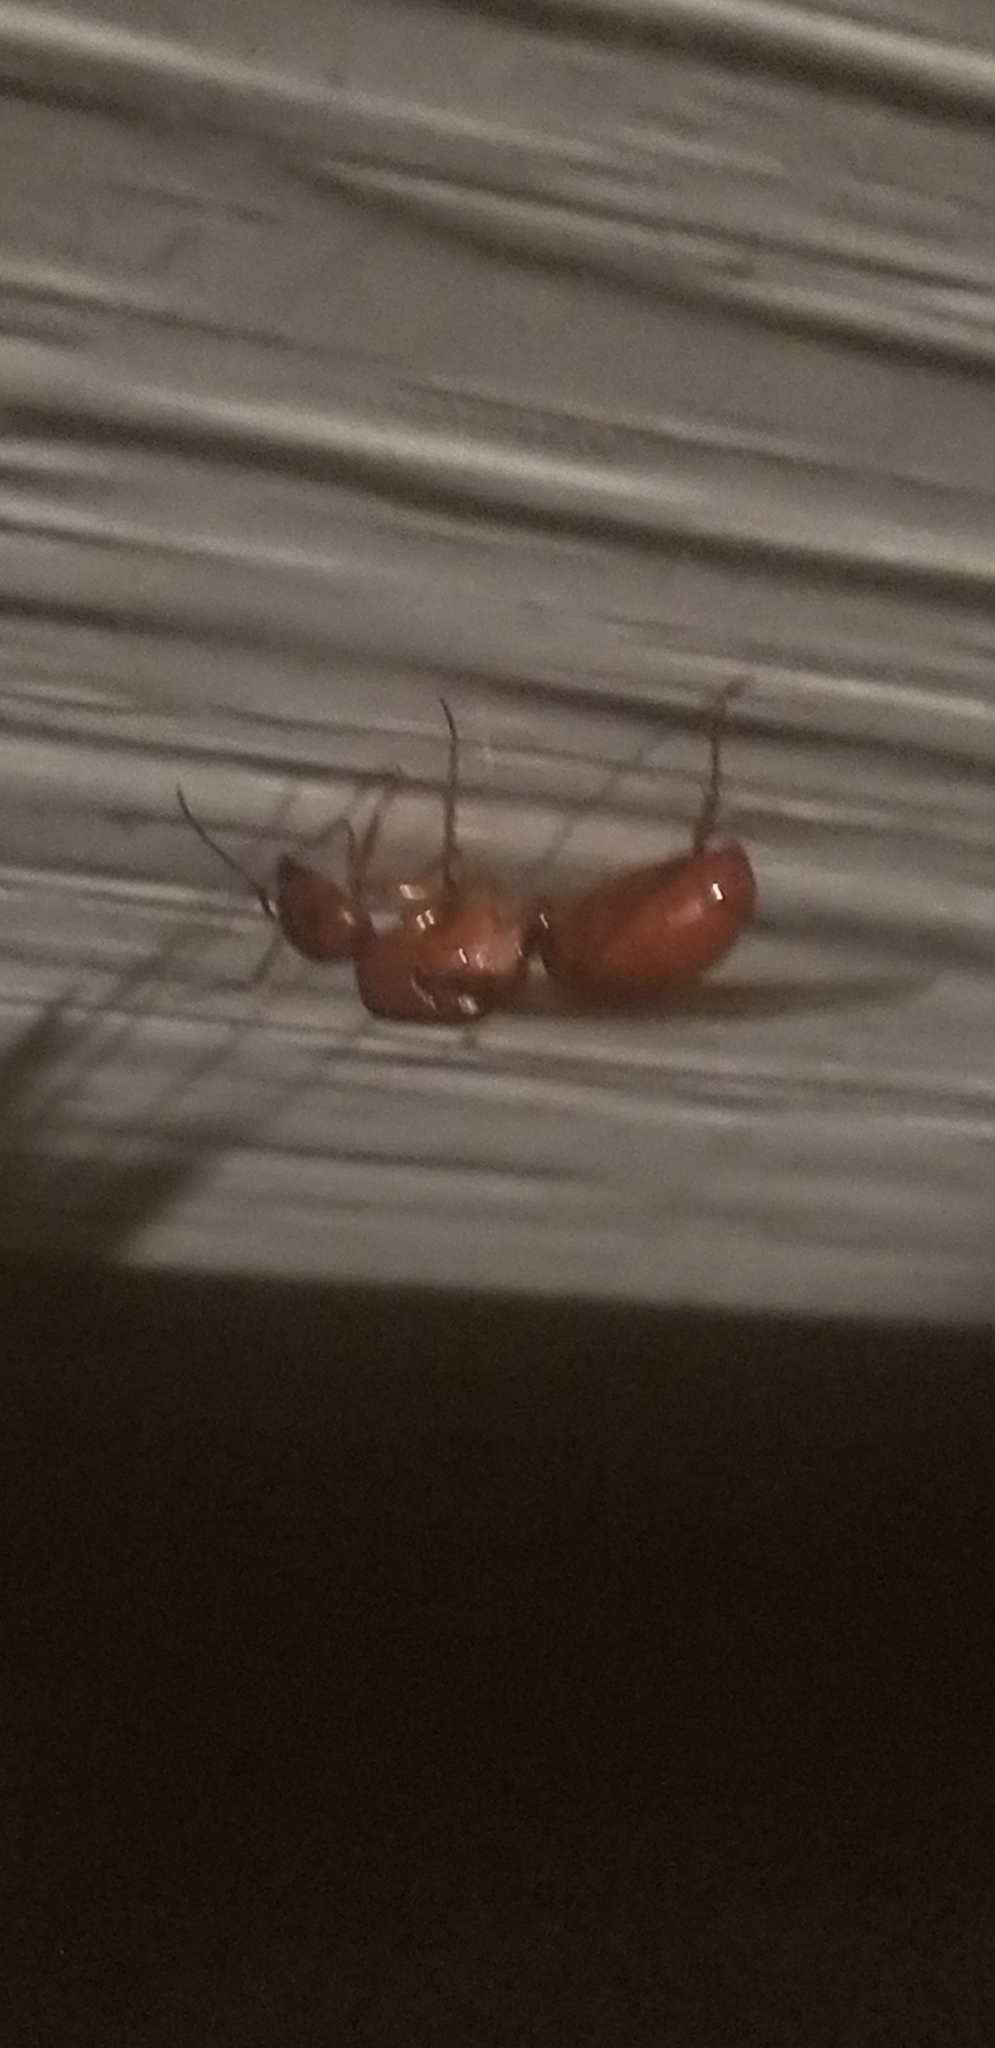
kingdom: Animalia
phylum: Arthropoda
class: Insecta
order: Hymenoptera
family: Formicidae
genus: Camponotus
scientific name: Camponotus castaneus
